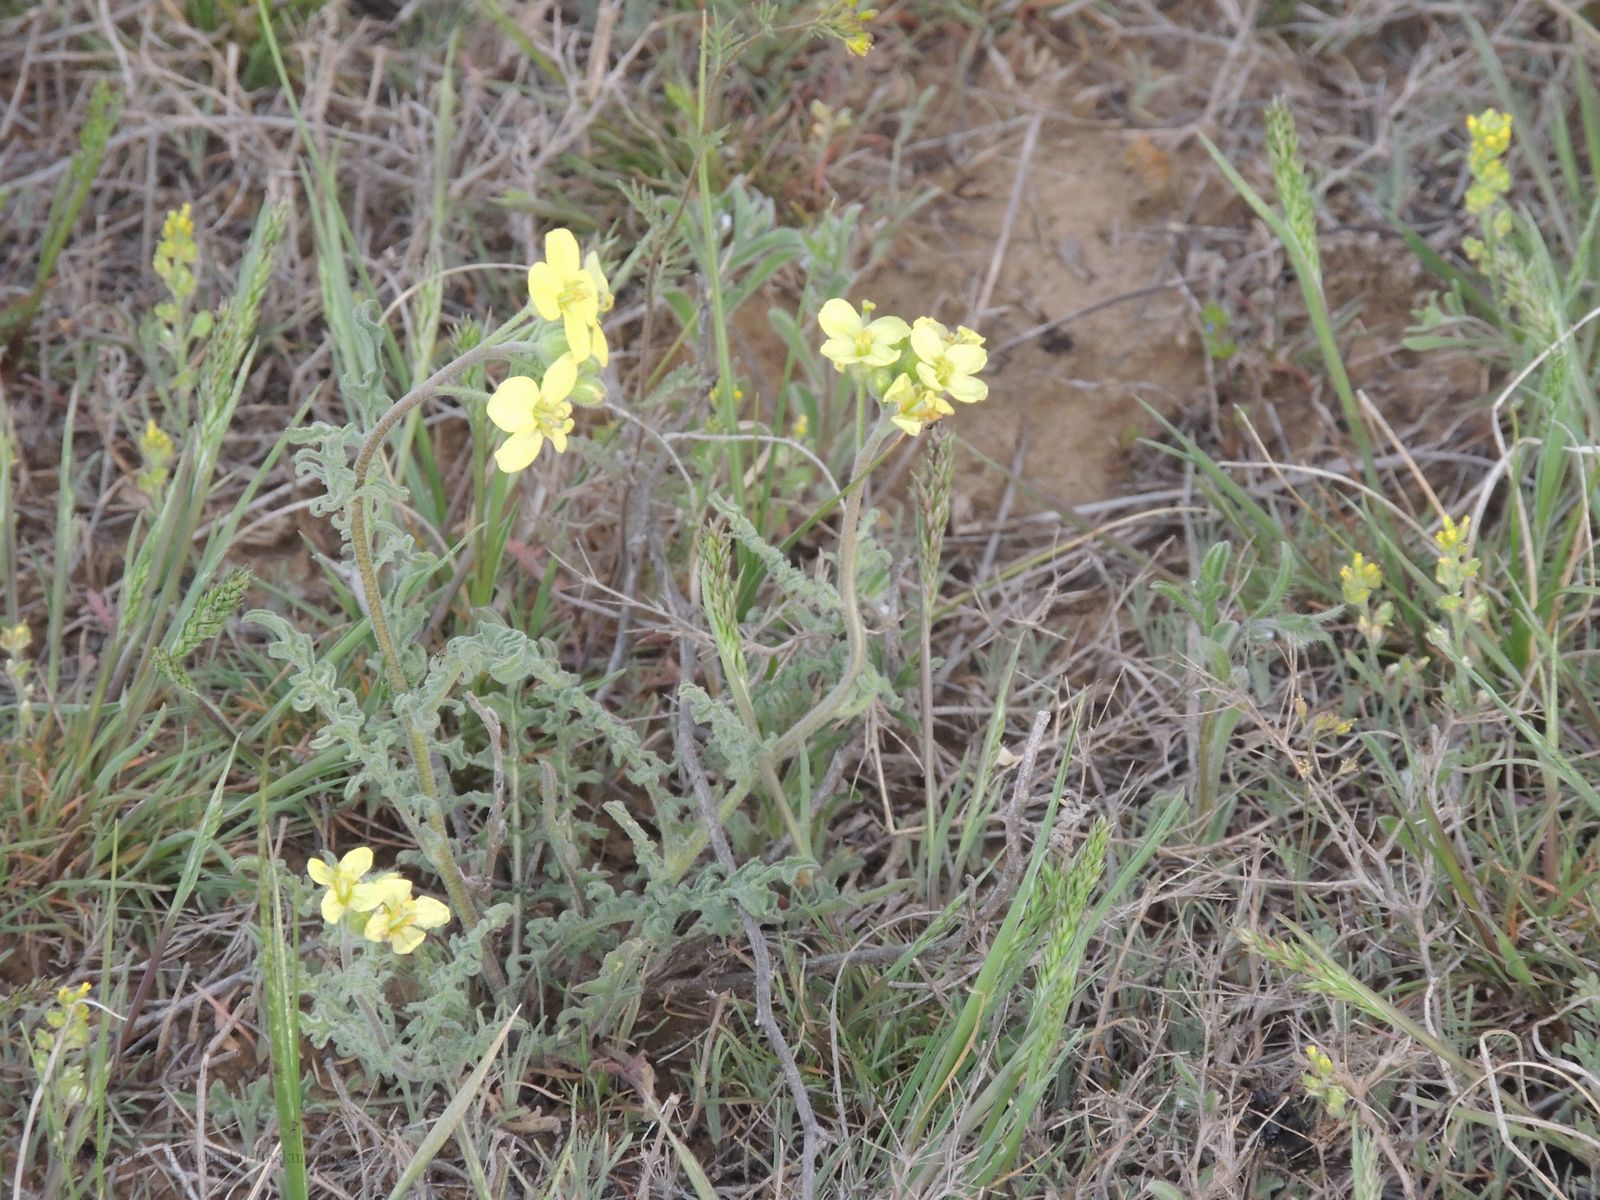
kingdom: Plantae
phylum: Tracheophyta
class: Magnoliopsida
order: Brassicales
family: Brassicaceae
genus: Sterigmostemum
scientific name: Sterigmostemum caspicum
